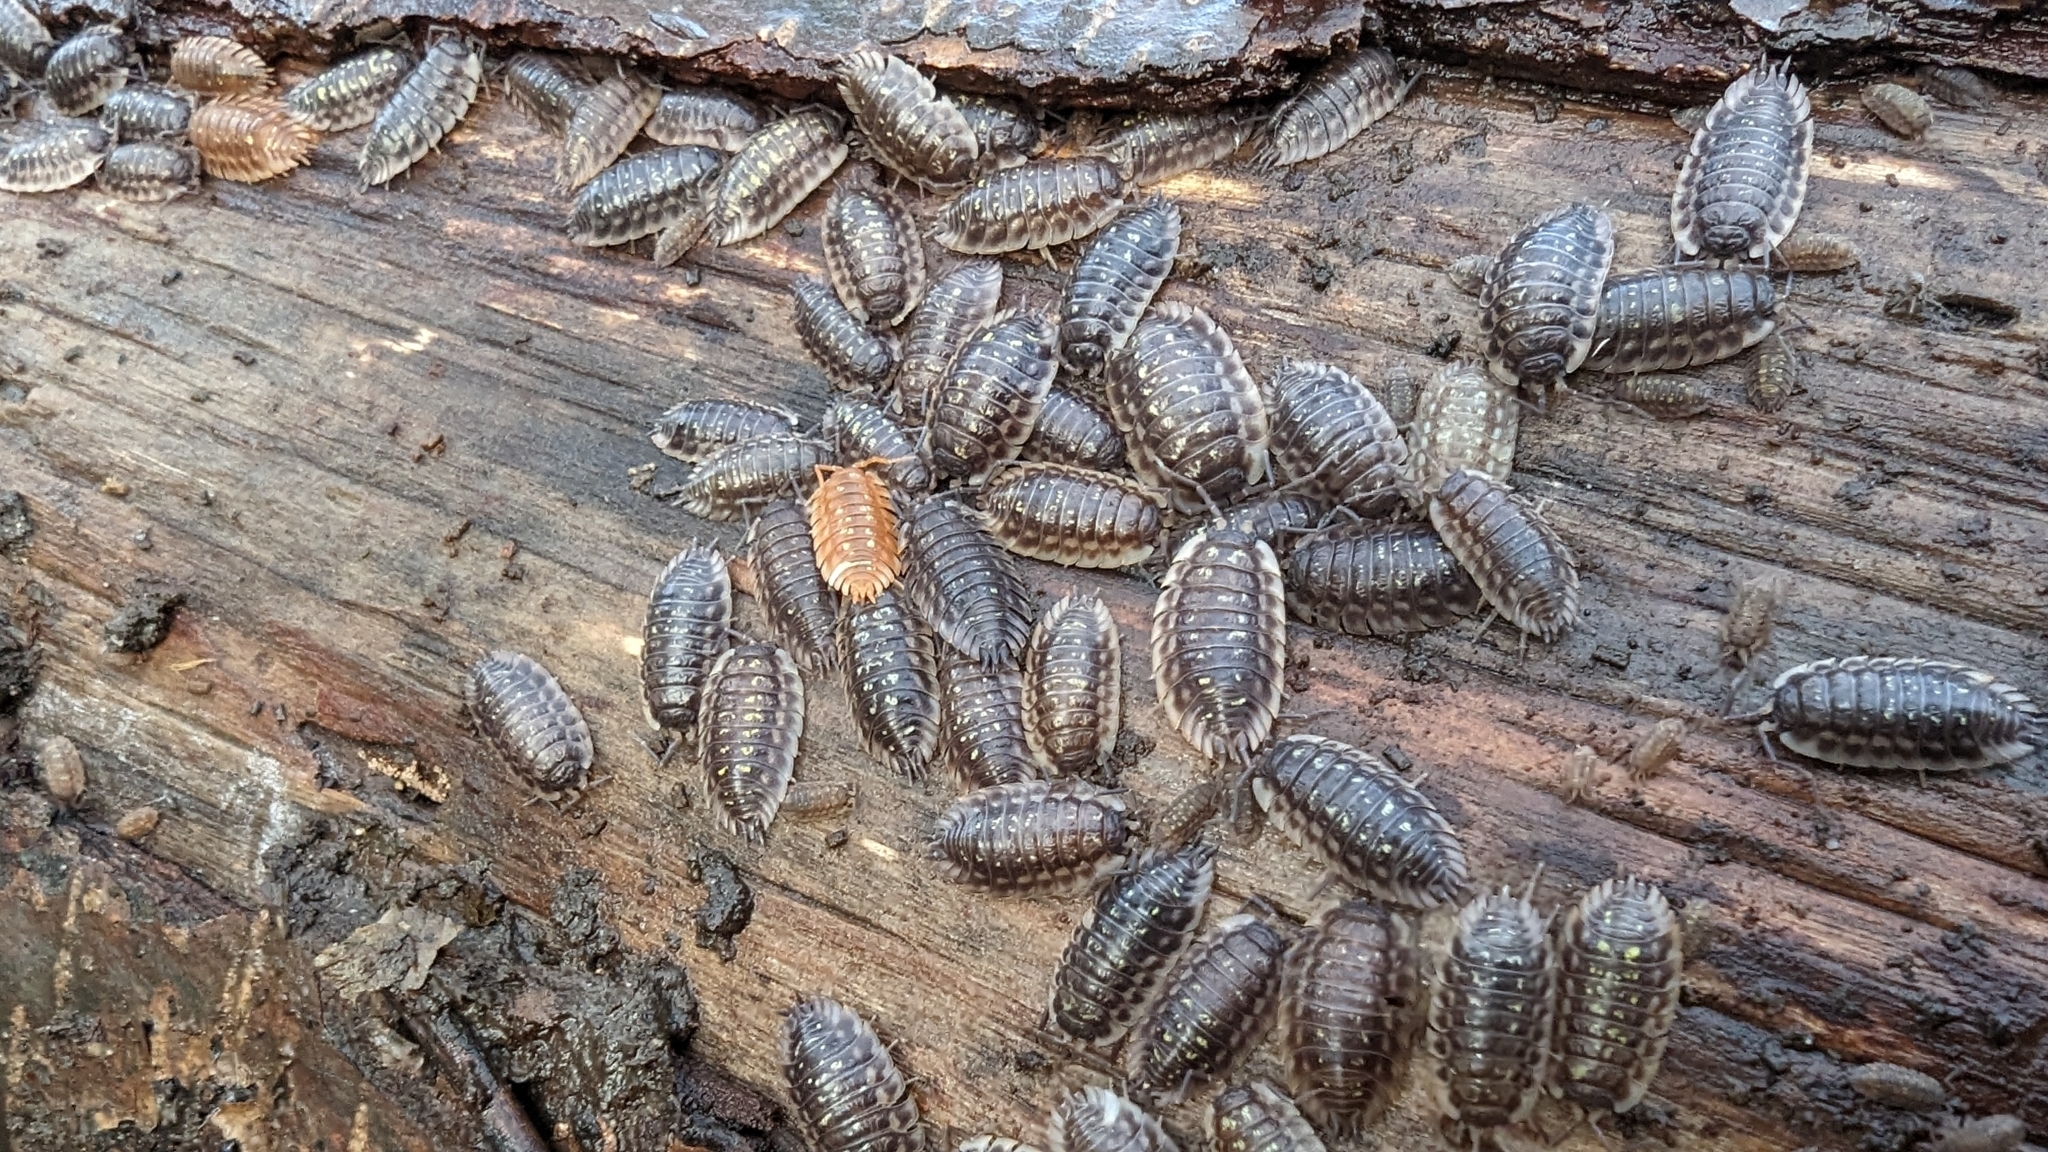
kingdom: Animalia
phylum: Arthropoda
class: Malacostraca
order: Isopoda
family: Oniscidae
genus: Oniscus
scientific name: Oniscus asellus
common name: Common shiny woodlouse
